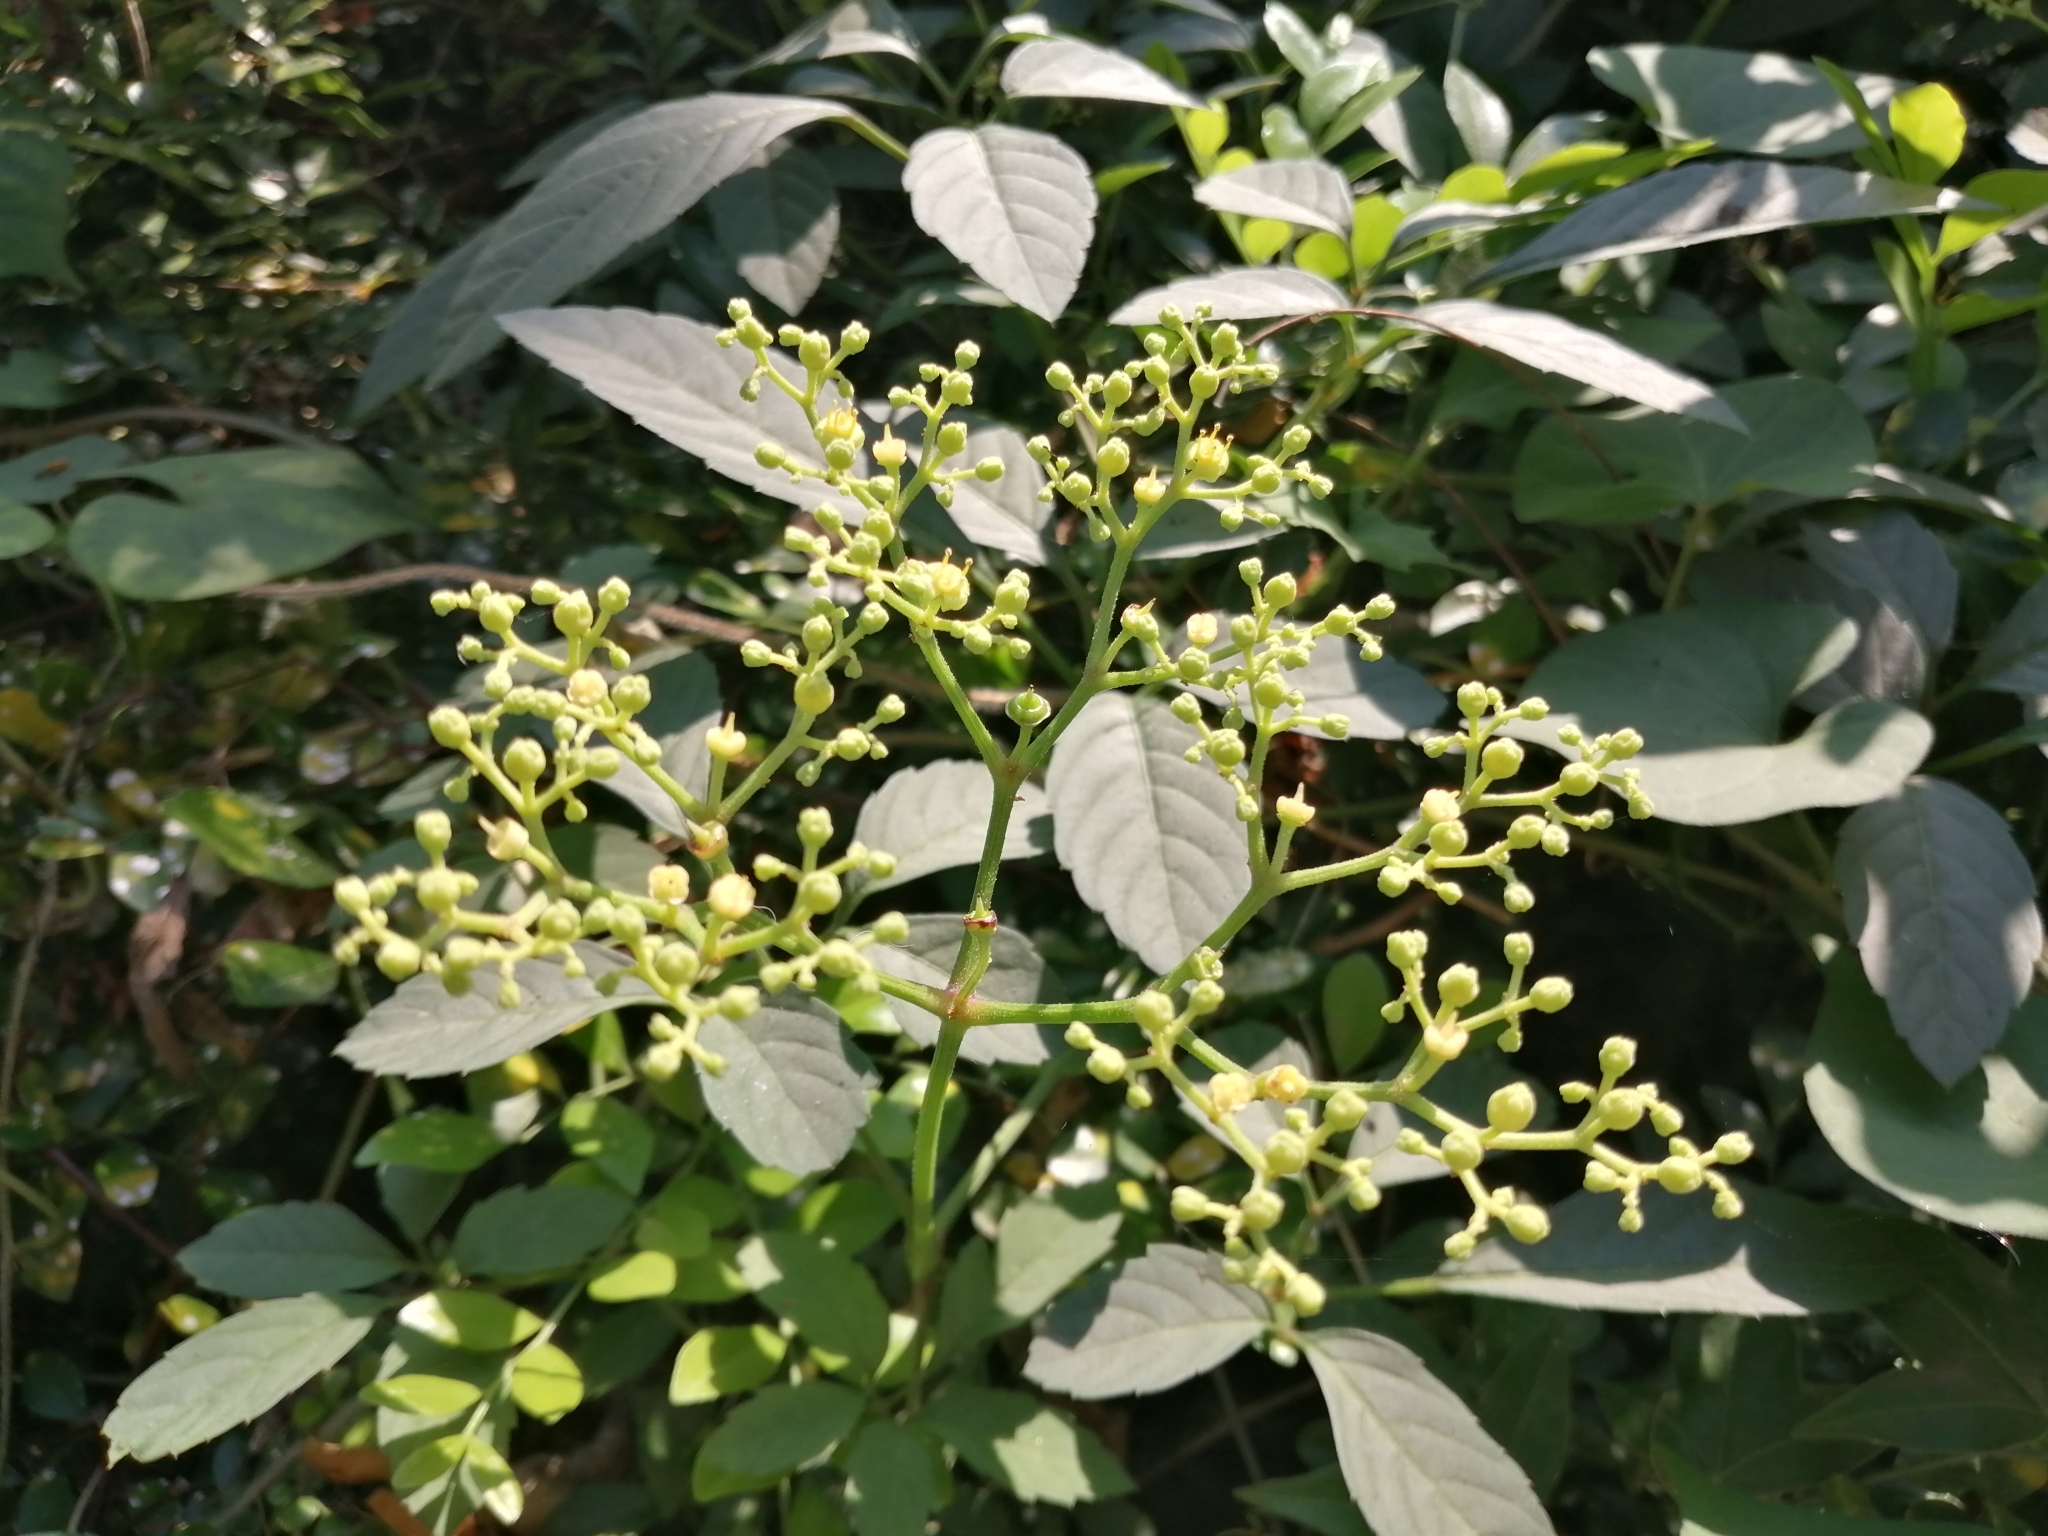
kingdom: Plantae
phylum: Tracheophyta
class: Magnoliopsida
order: Vitales
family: Vitaceae
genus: Causonis
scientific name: Causonis japonica
